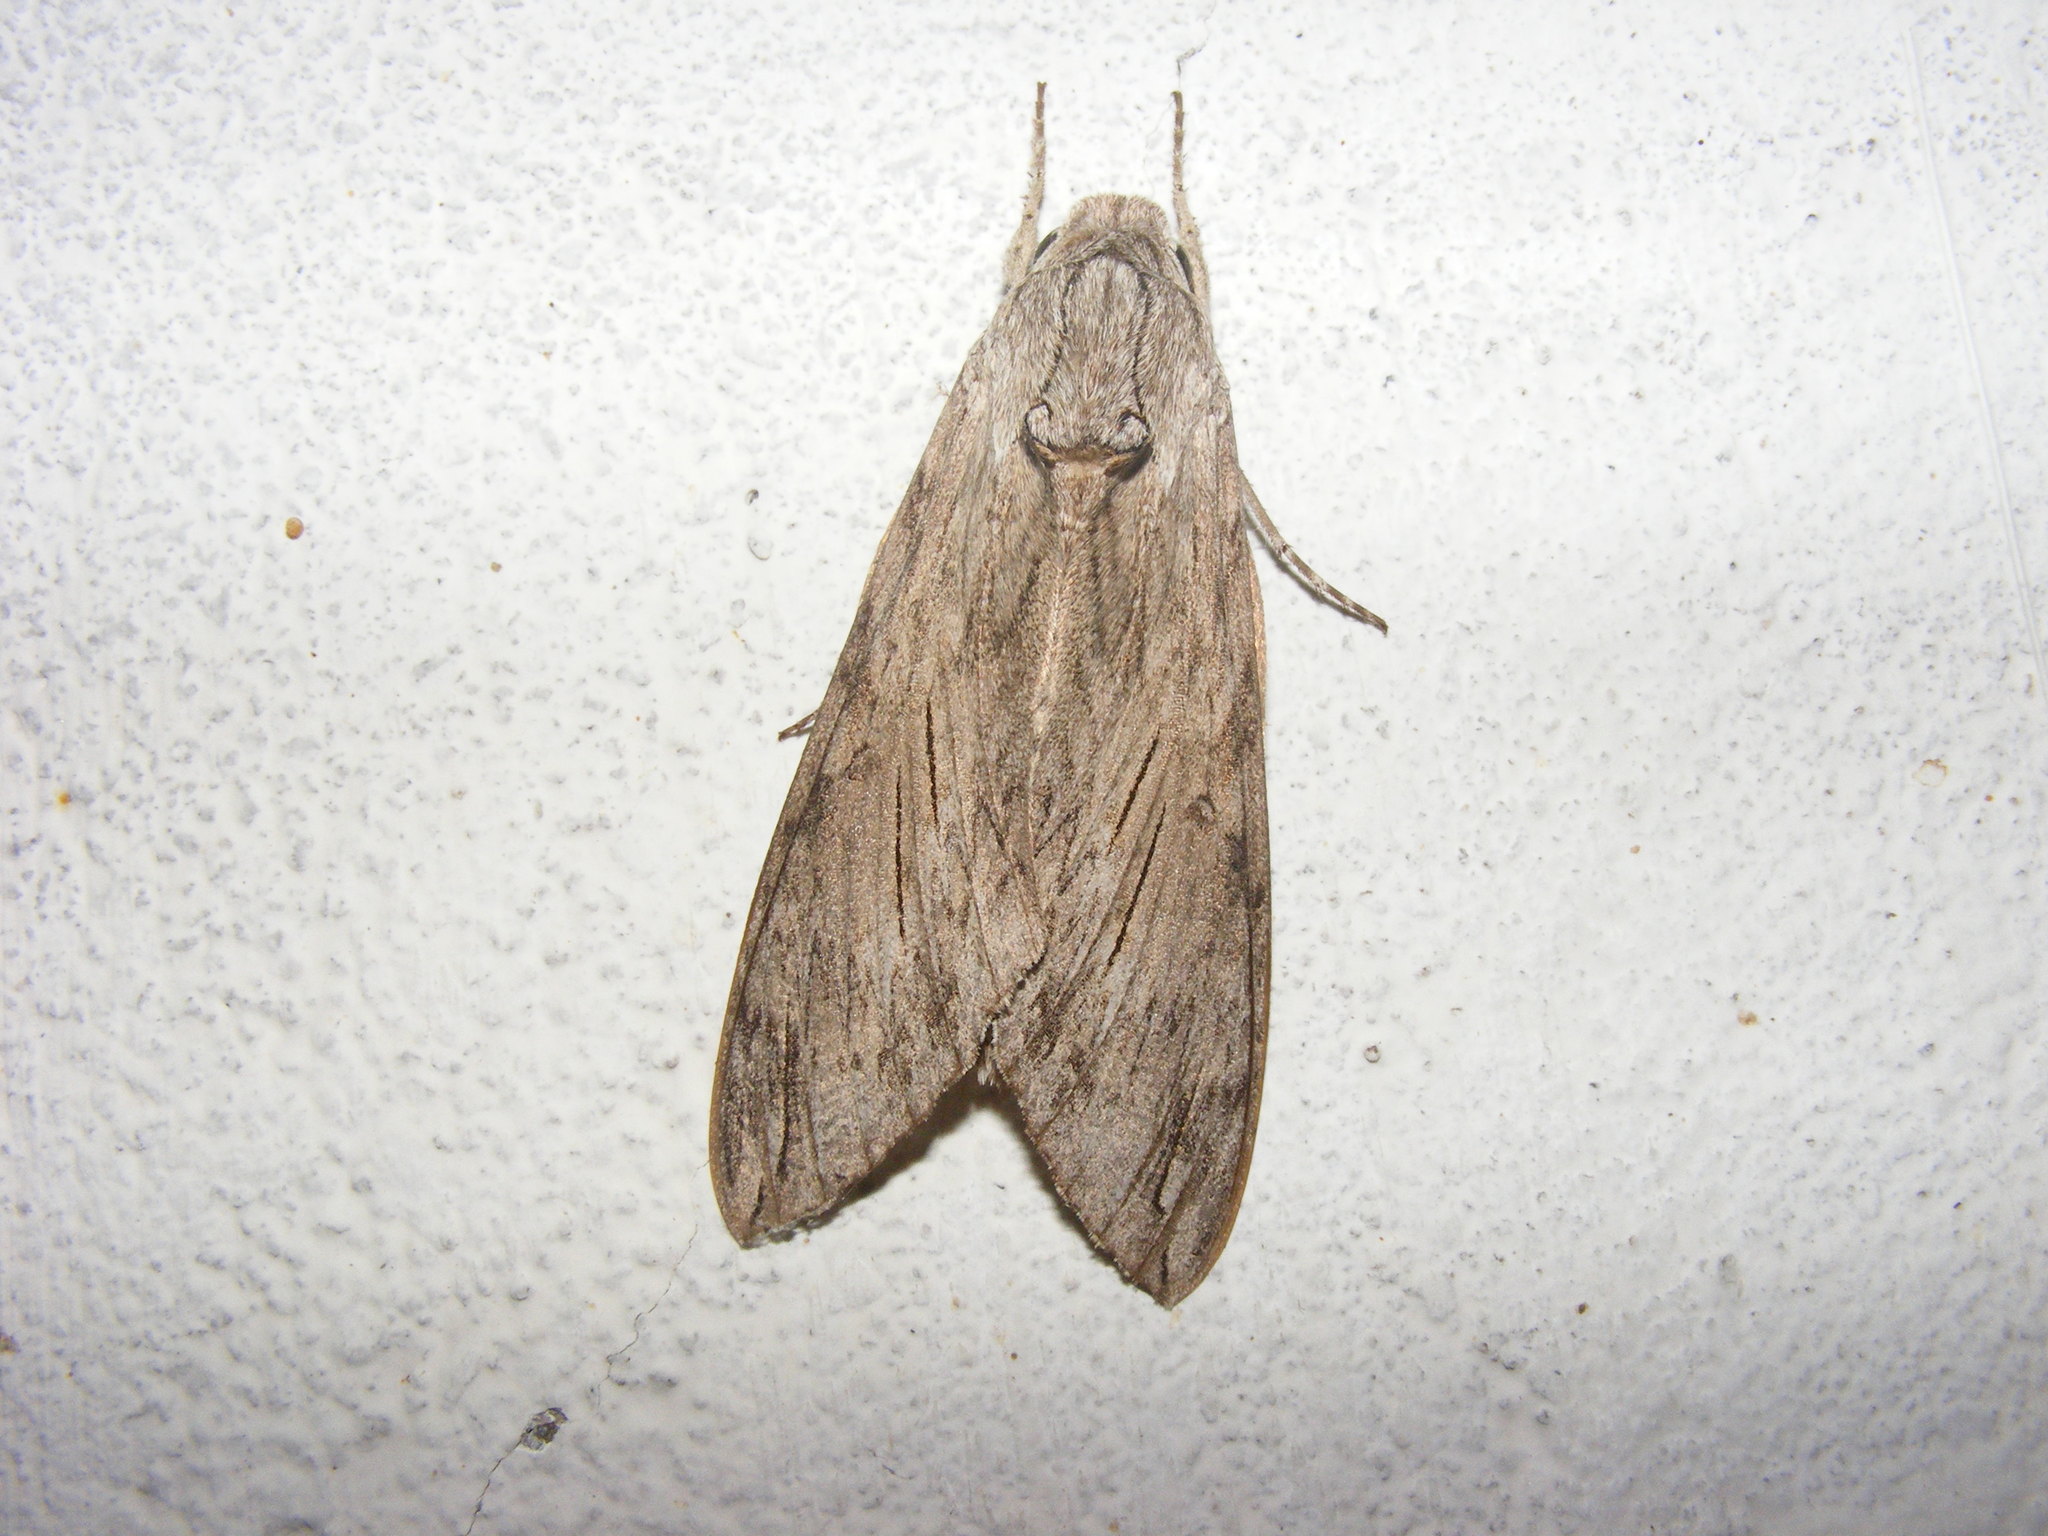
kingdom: Animalia
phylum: Arthropoda
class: Insecta
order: Lepidoptera
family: Sphingidae
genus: Agrius
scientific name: Agrius convolvuli
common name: Convolvulus hawkmoth
